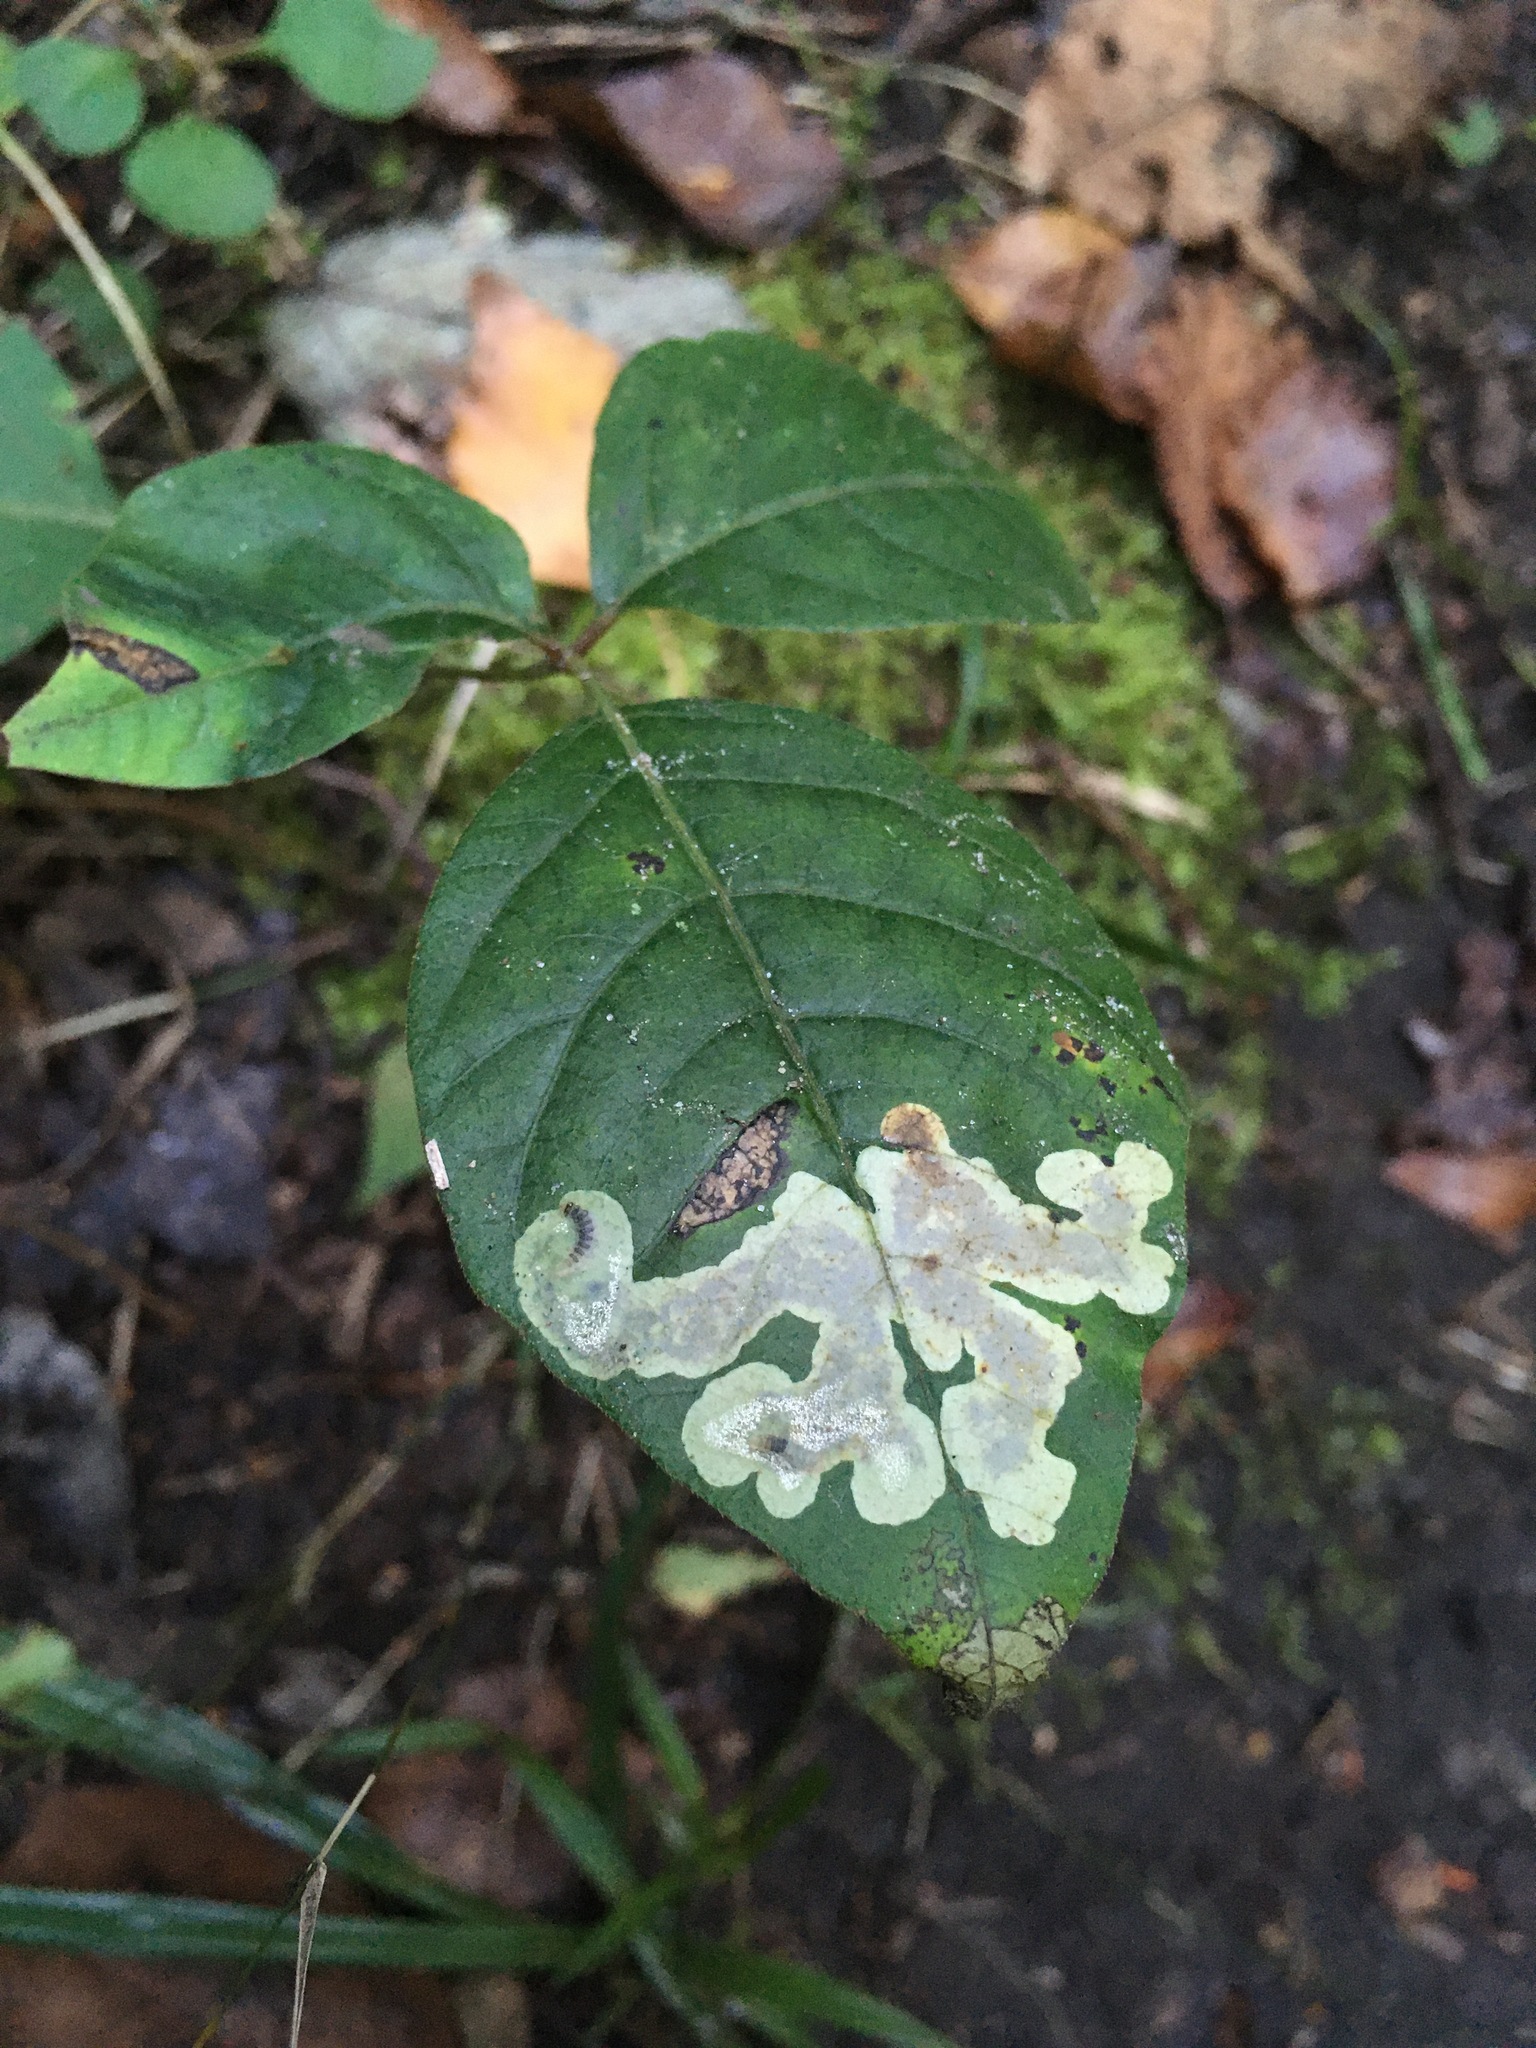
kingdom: Animalia
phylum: Arthropoda
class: Insecta
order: Lepidoptera
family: Gracillariidae
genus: Cameraria
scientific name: Cameraria guttifinitella
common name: Poison ivy leaf-miner moth
